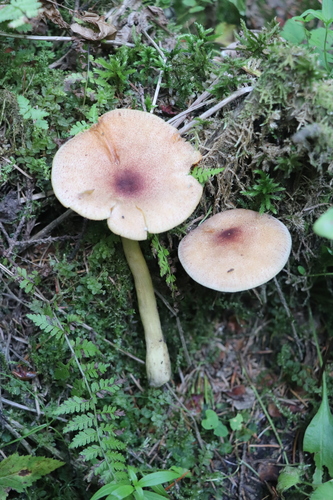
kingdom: Fungi
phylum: Basidiomycota
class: Agaricomycetes
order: Agaricales
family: Tricholomataceae
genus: Tricholomopsis
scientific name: Tricholomopsis rutilans
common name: Plums and custard
